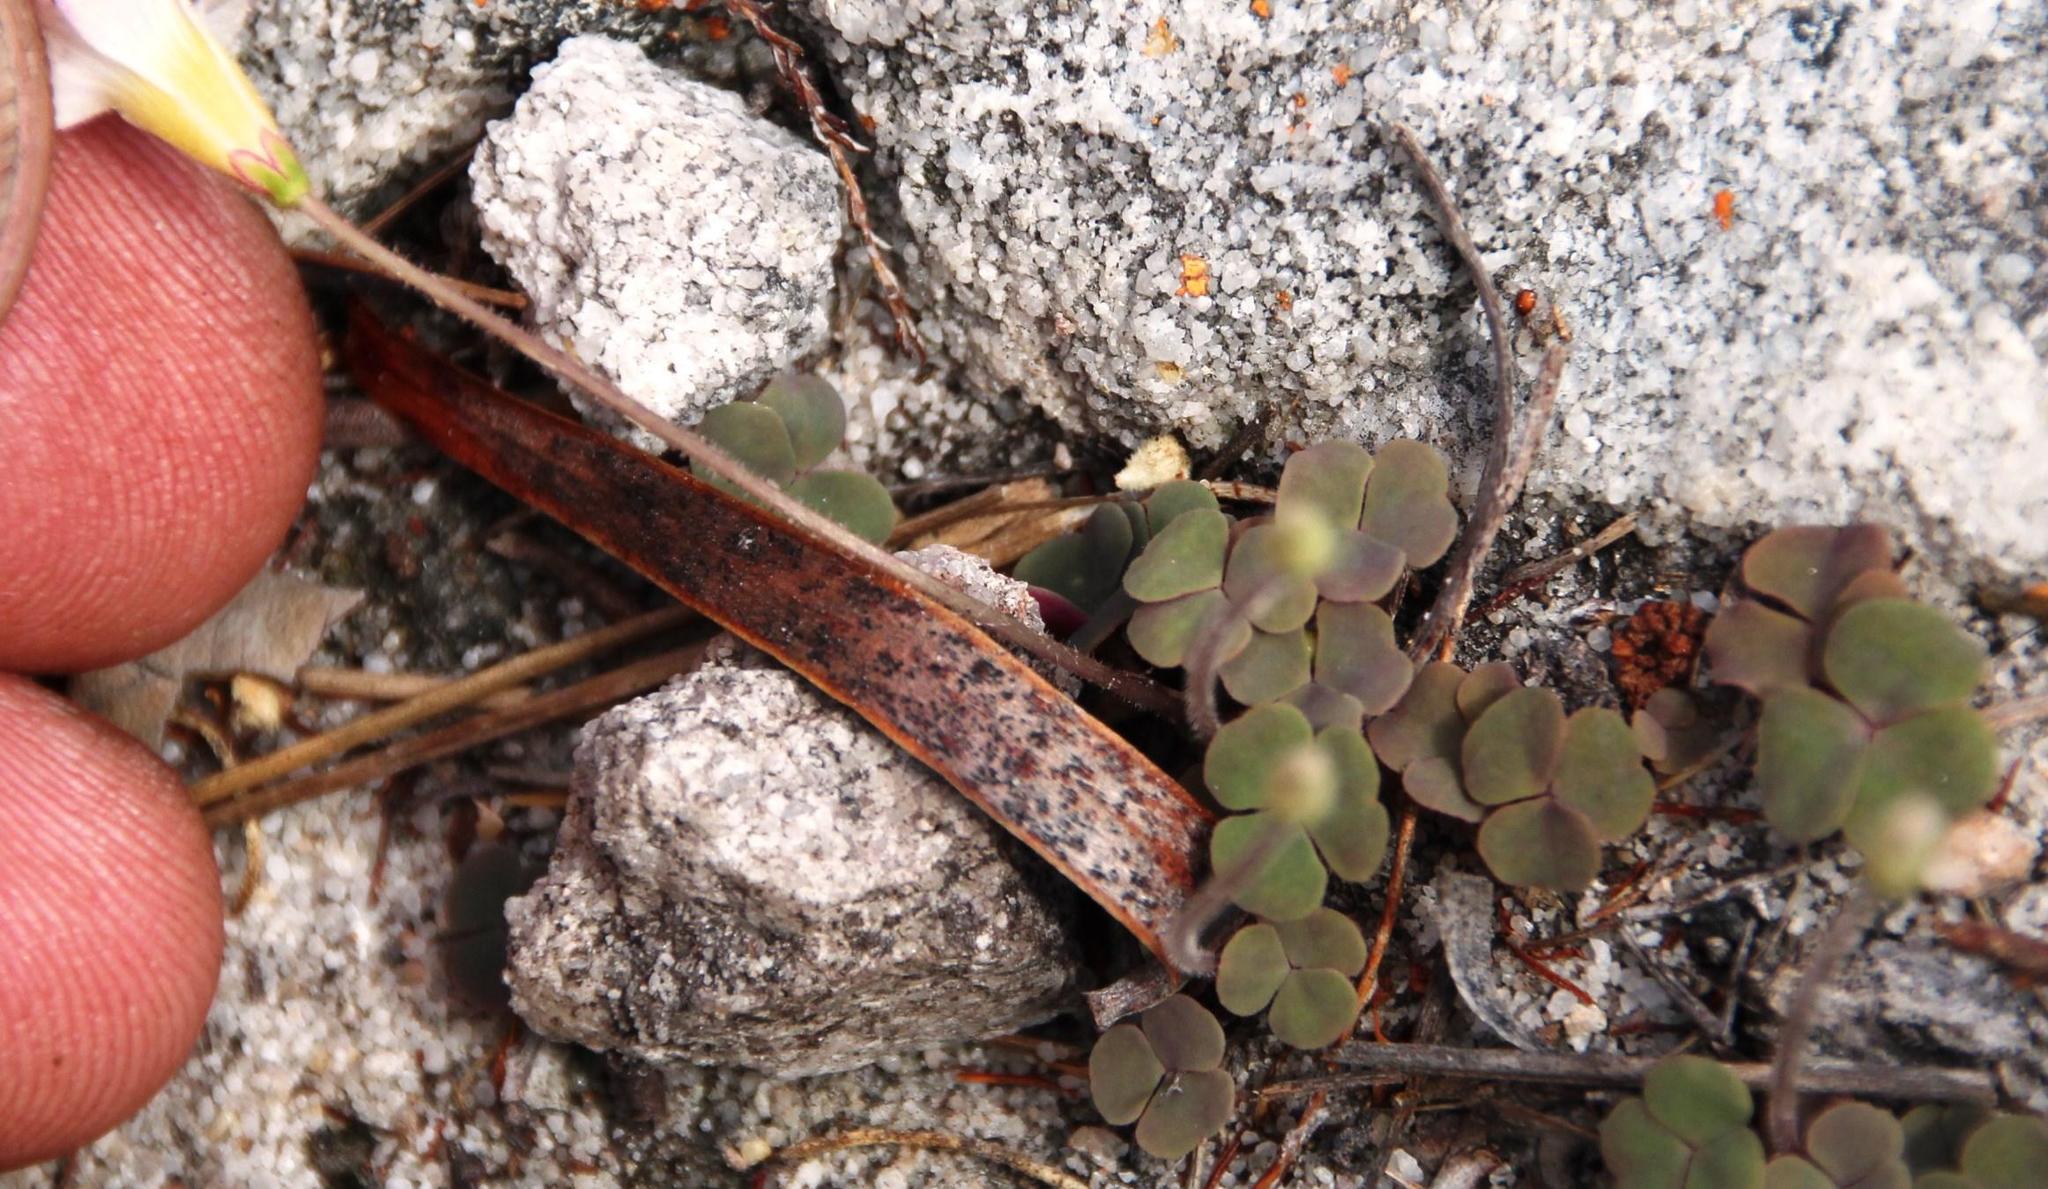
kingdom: Plantae
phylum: Tracheophyta
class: Magnoliopsida
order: Oxalidales
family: Oxalidaceae
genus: Oxalis
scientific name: Oxalis punctata
